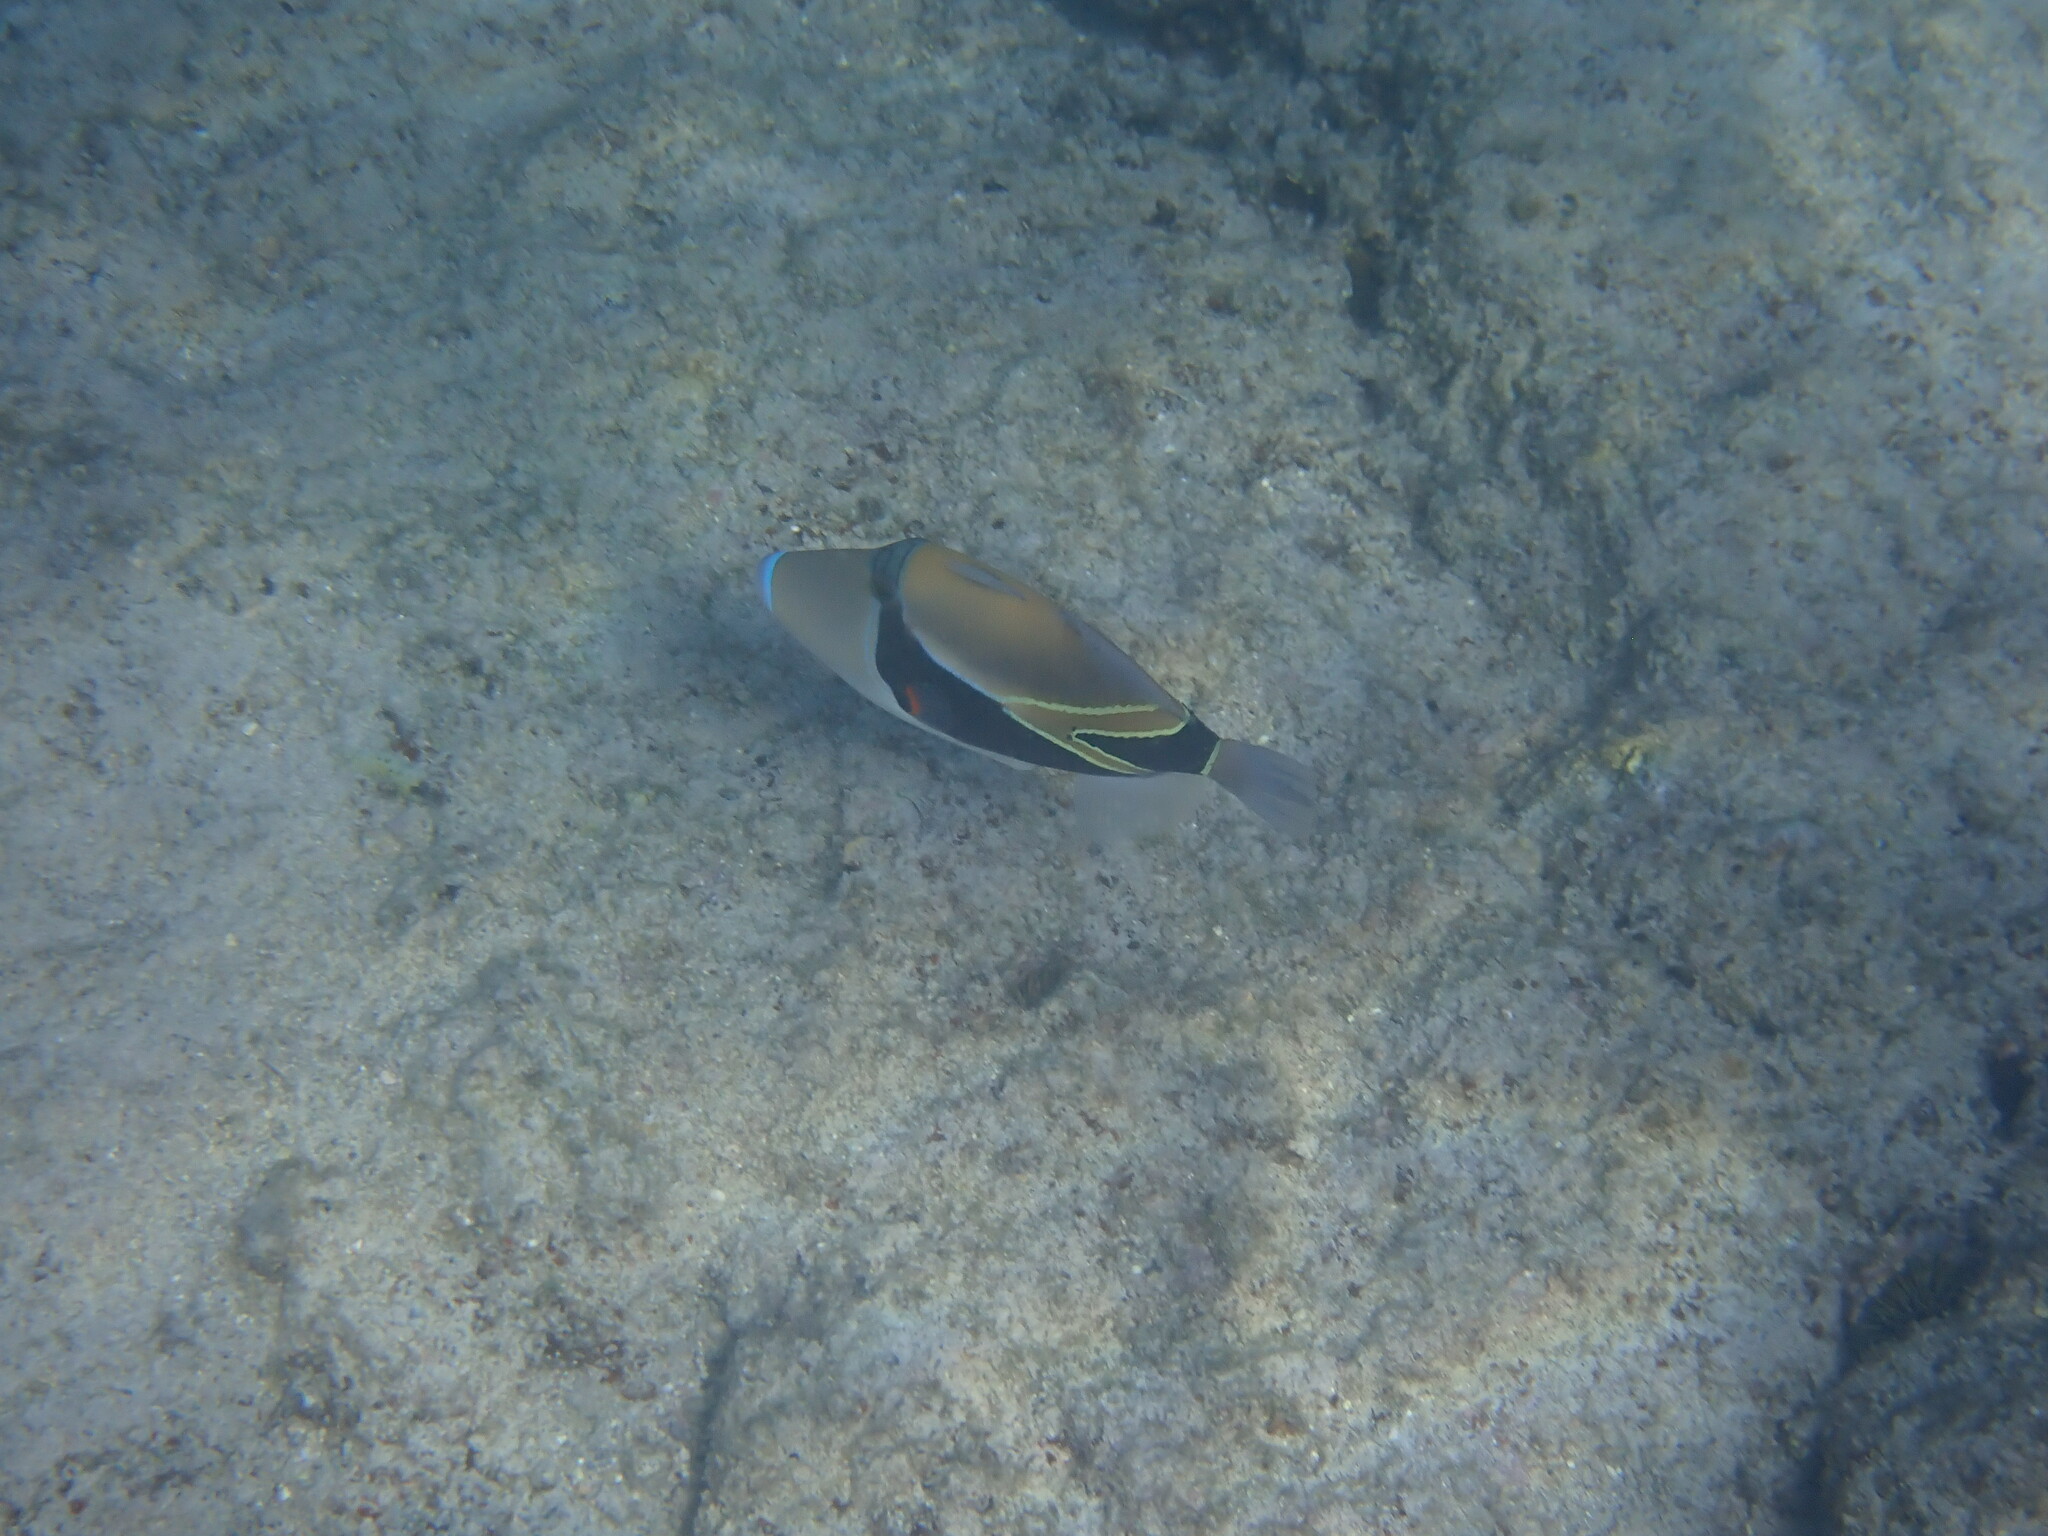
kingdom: Animalia
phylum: Chordata
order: Tetraodontiformes
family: Balistidae
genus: Rhinecanthus
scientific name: Rhinecanthus rectangulus
